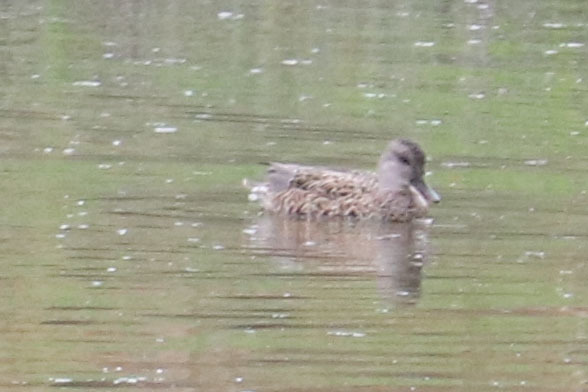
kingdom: Animalia
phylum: Chordata
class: Aves
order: Anseriformes
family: Anatidae
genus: Mareca
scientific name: Mareca strepera
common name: Gadwall
